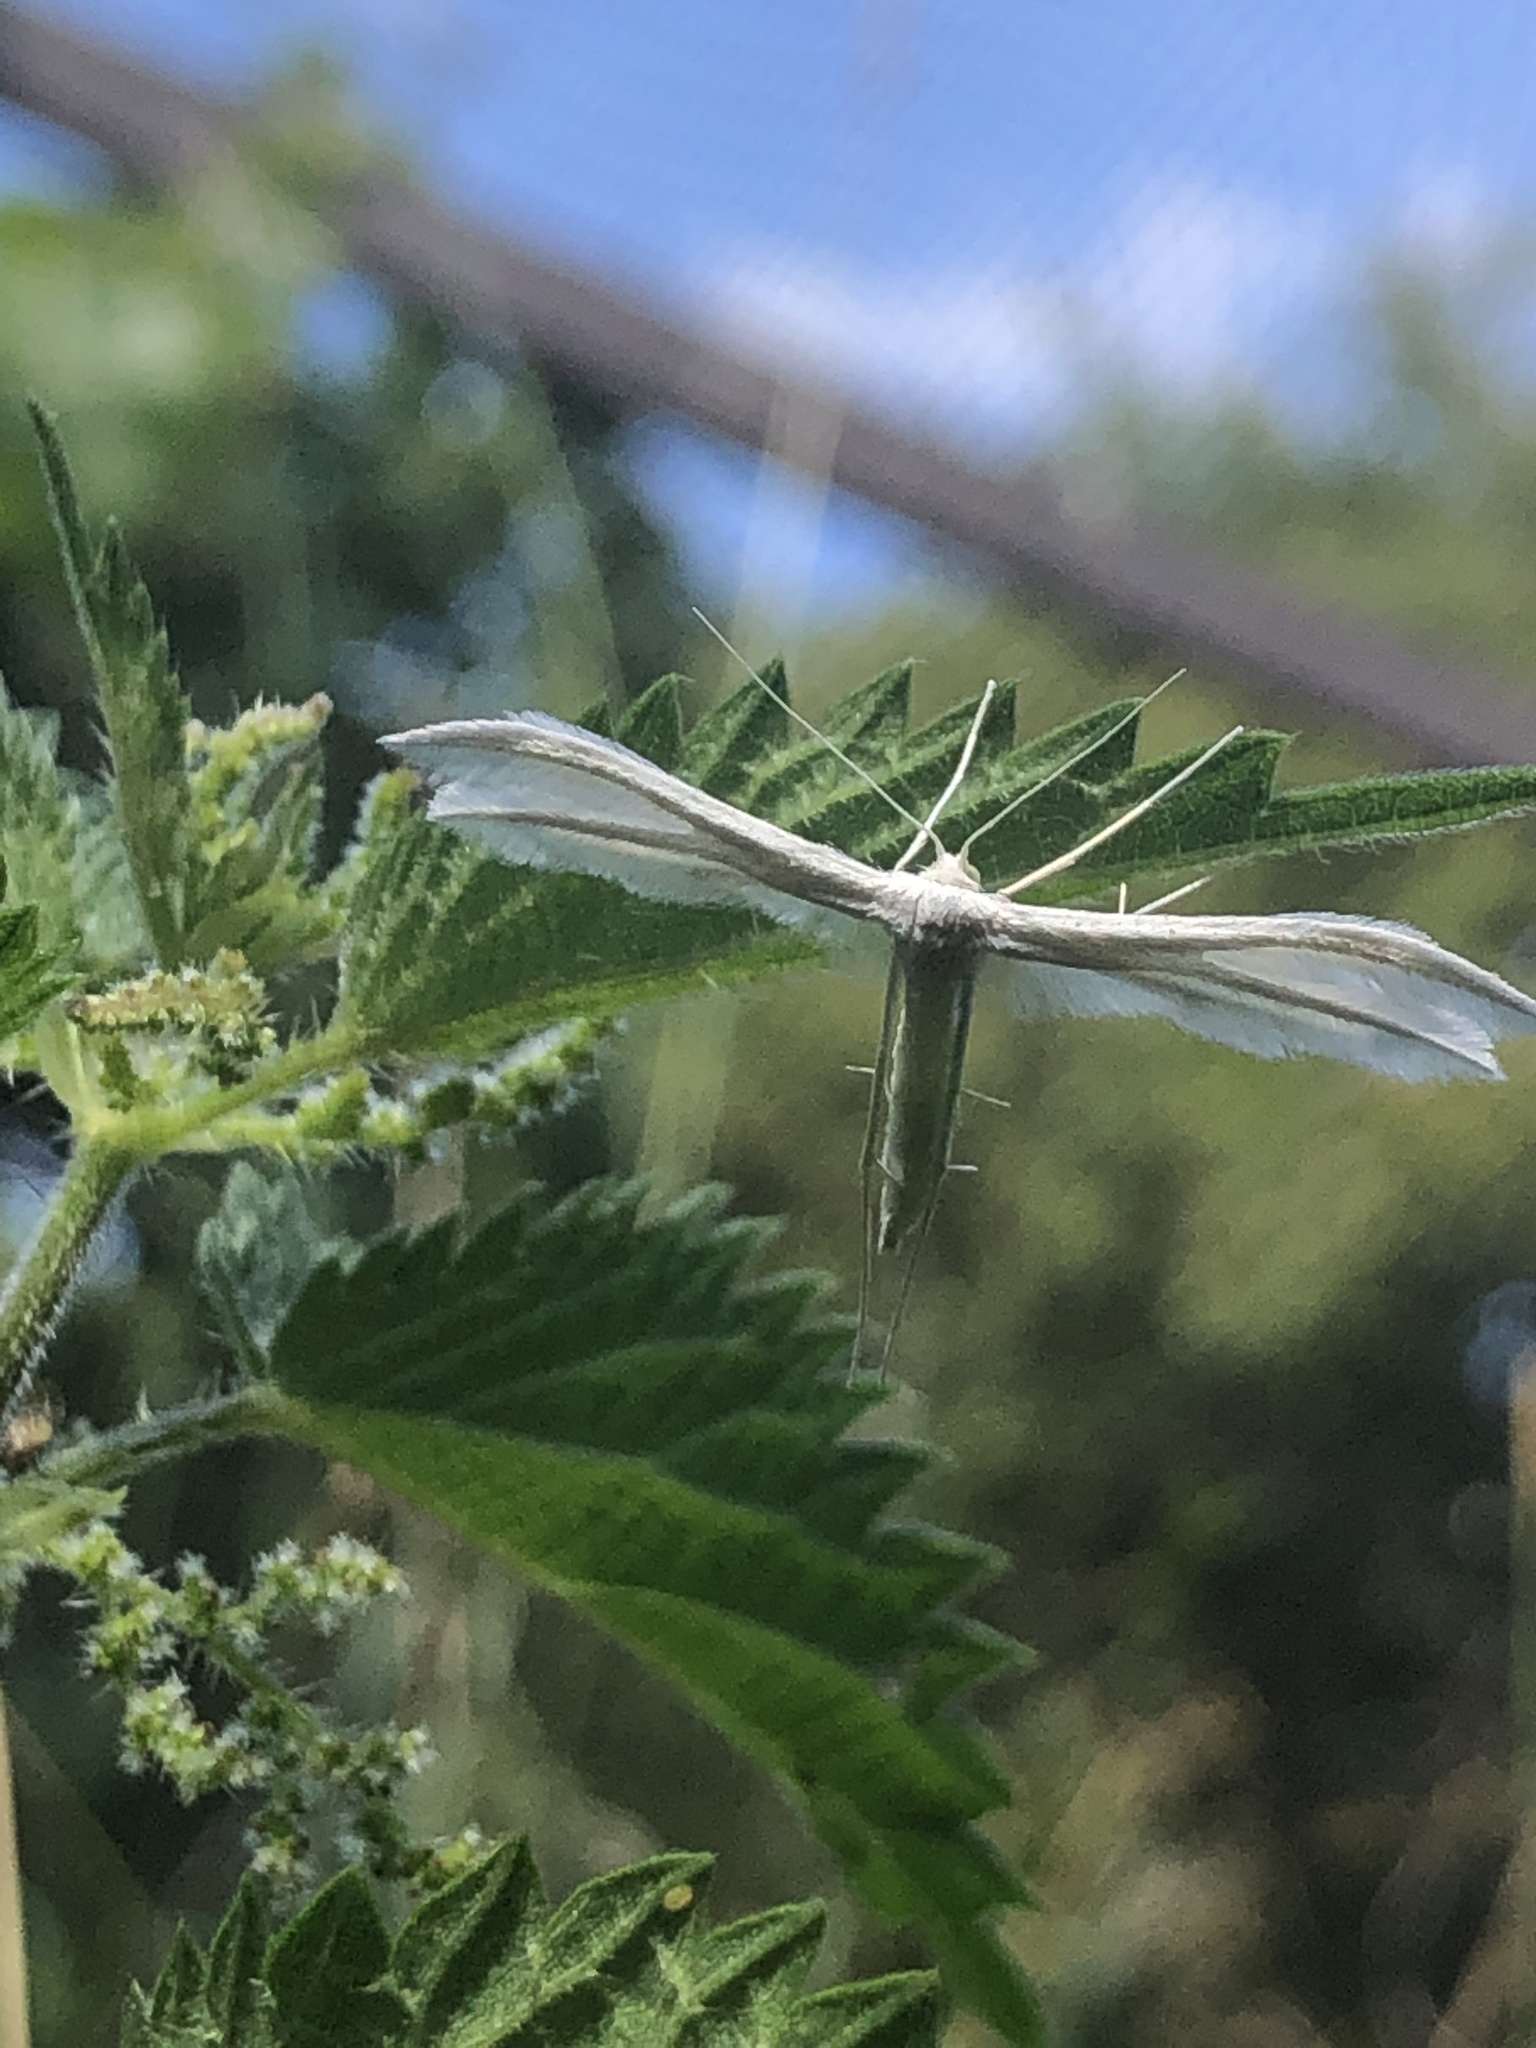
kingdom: Animalia
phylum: Arthropoda
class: Insecta
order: Lepidoptera
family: Pterophoridae
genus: Pterophorus
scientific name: Pterophorus pentadactyla
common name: White plume moth
